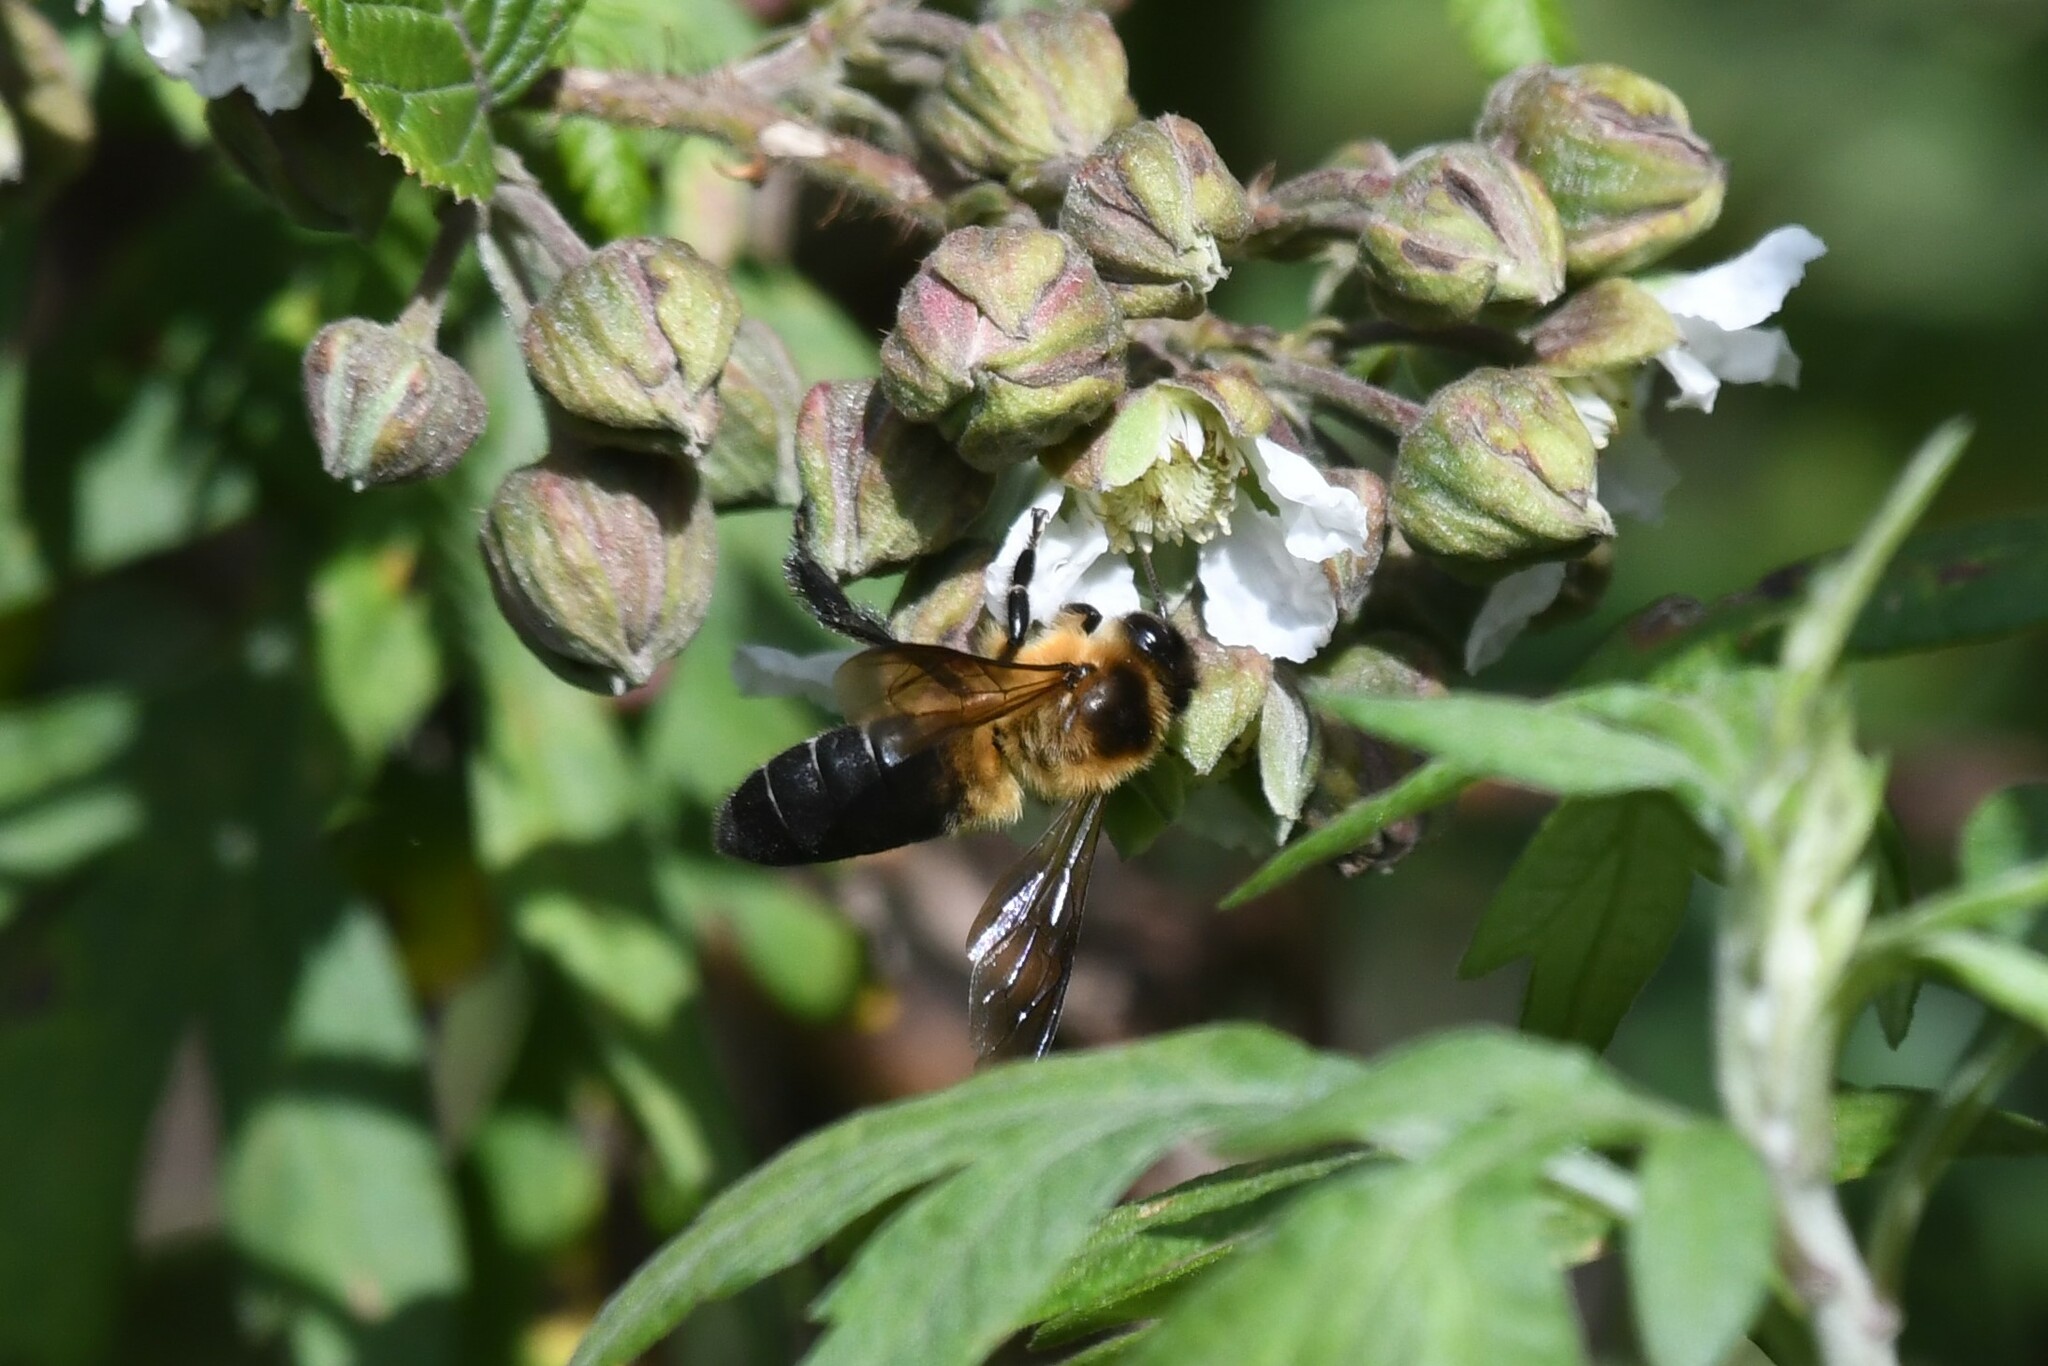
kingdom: Animalia
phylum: Arthropoda
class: Insecta
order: Hymenoptera
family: Apidae
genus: Apis
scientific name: Apis laboriosa
